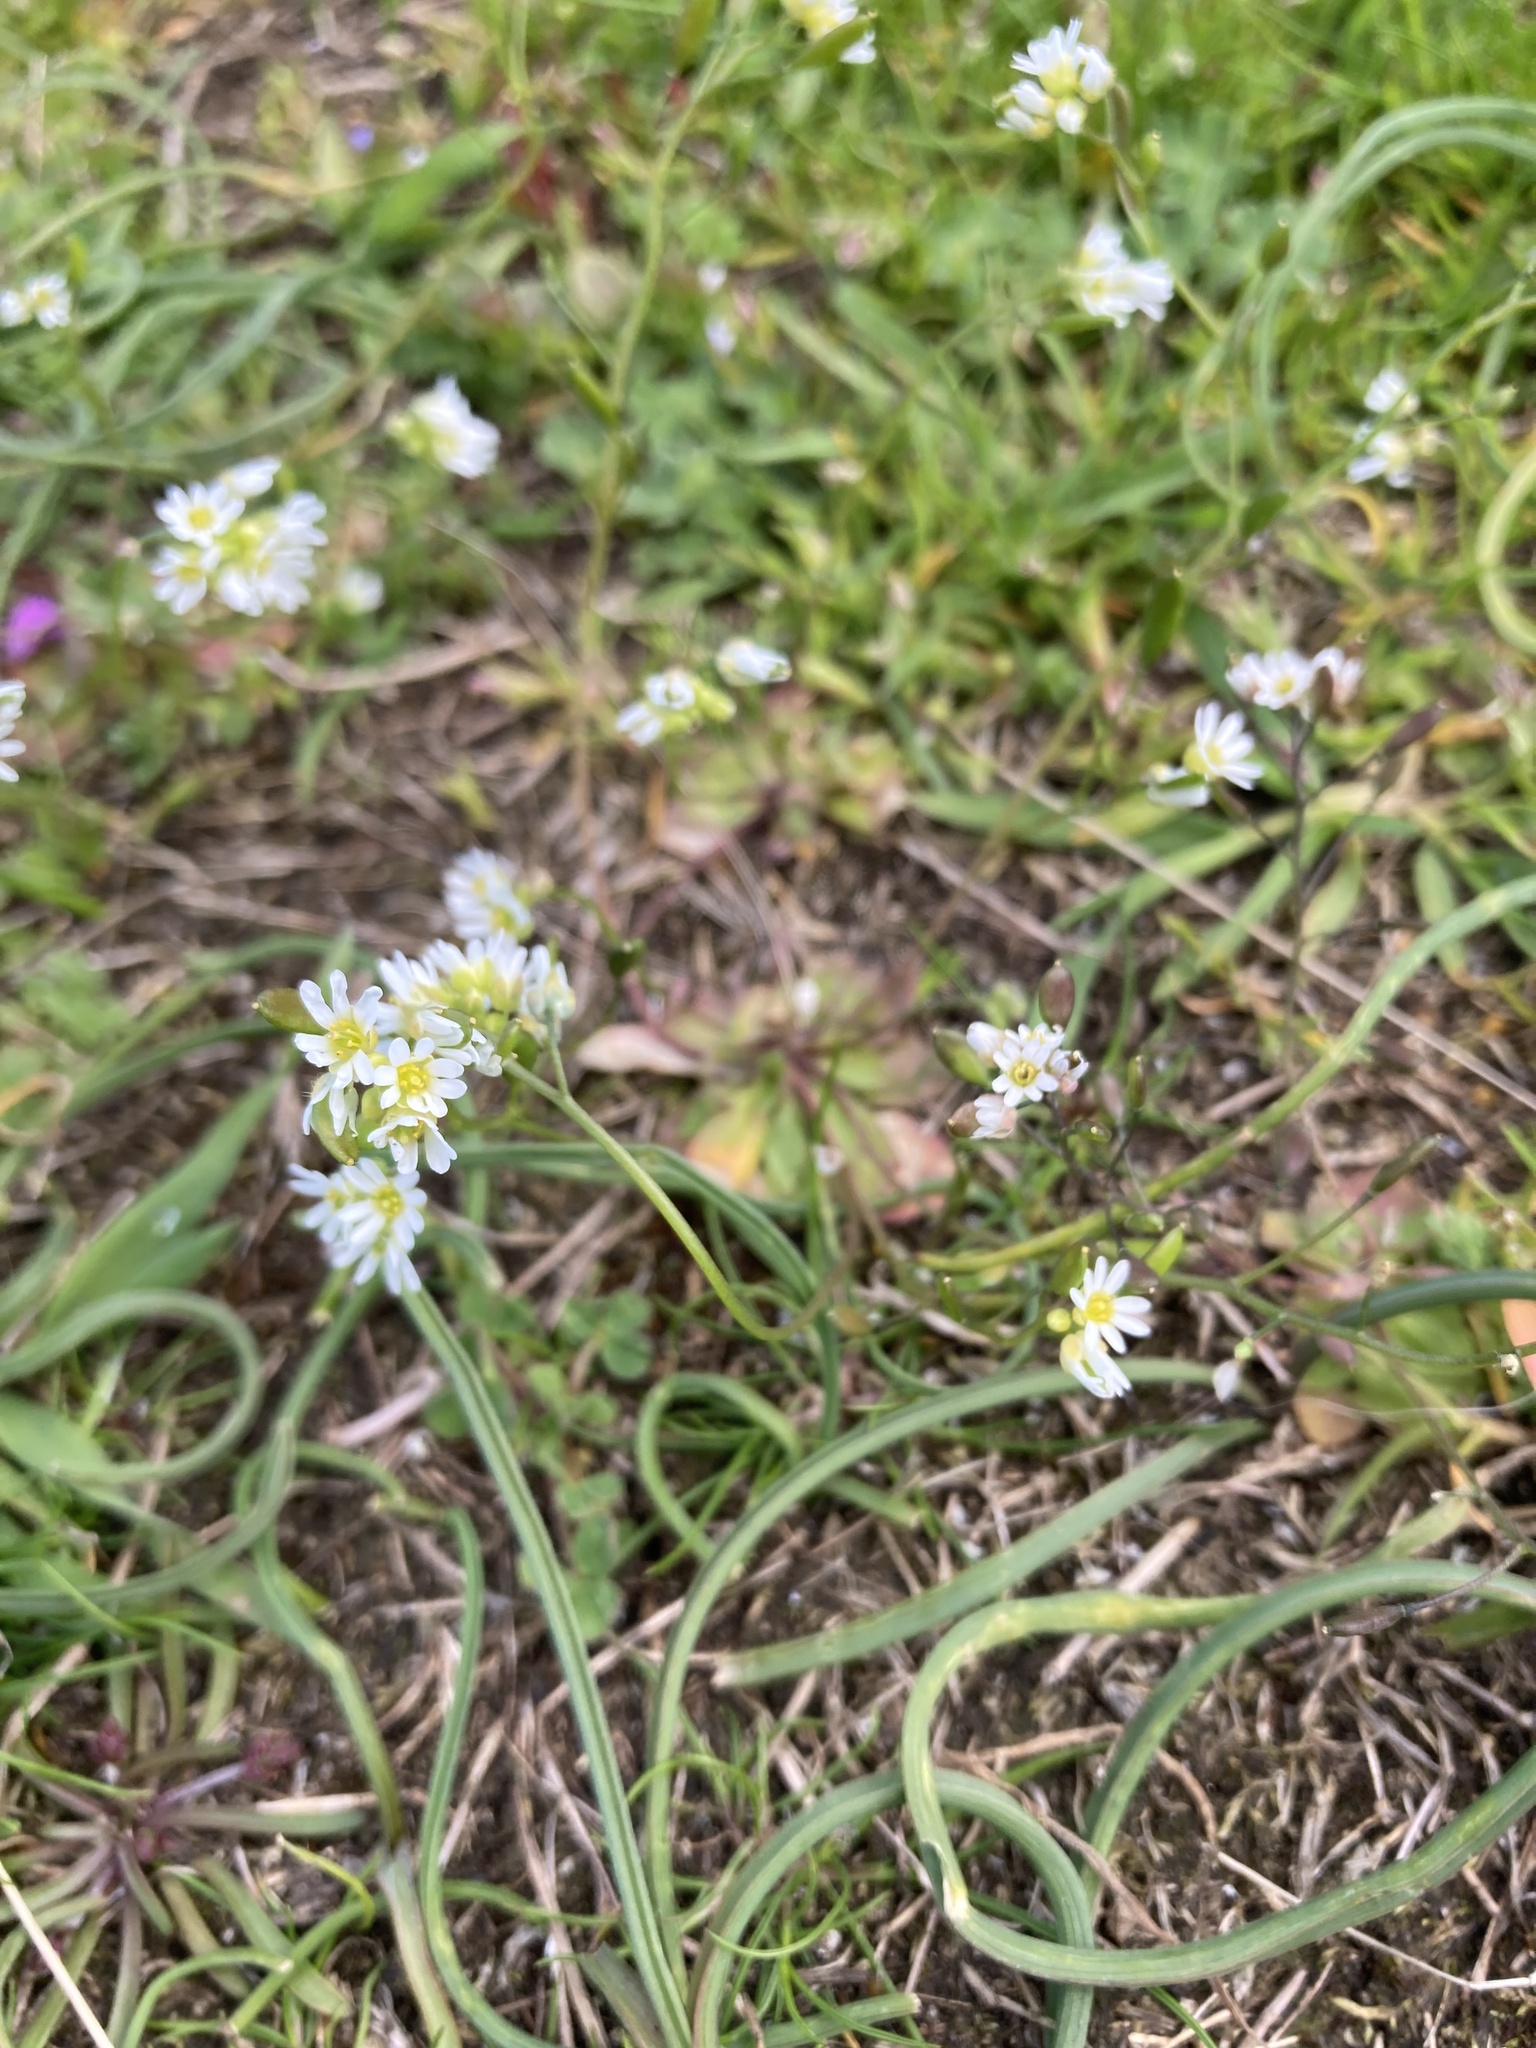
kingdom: Plantae
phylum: Tracheophyta
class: Magnoliopsida
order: Brassicales
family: Brassicaceae
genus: Draba
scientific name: Draba verna
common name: Spring draba
